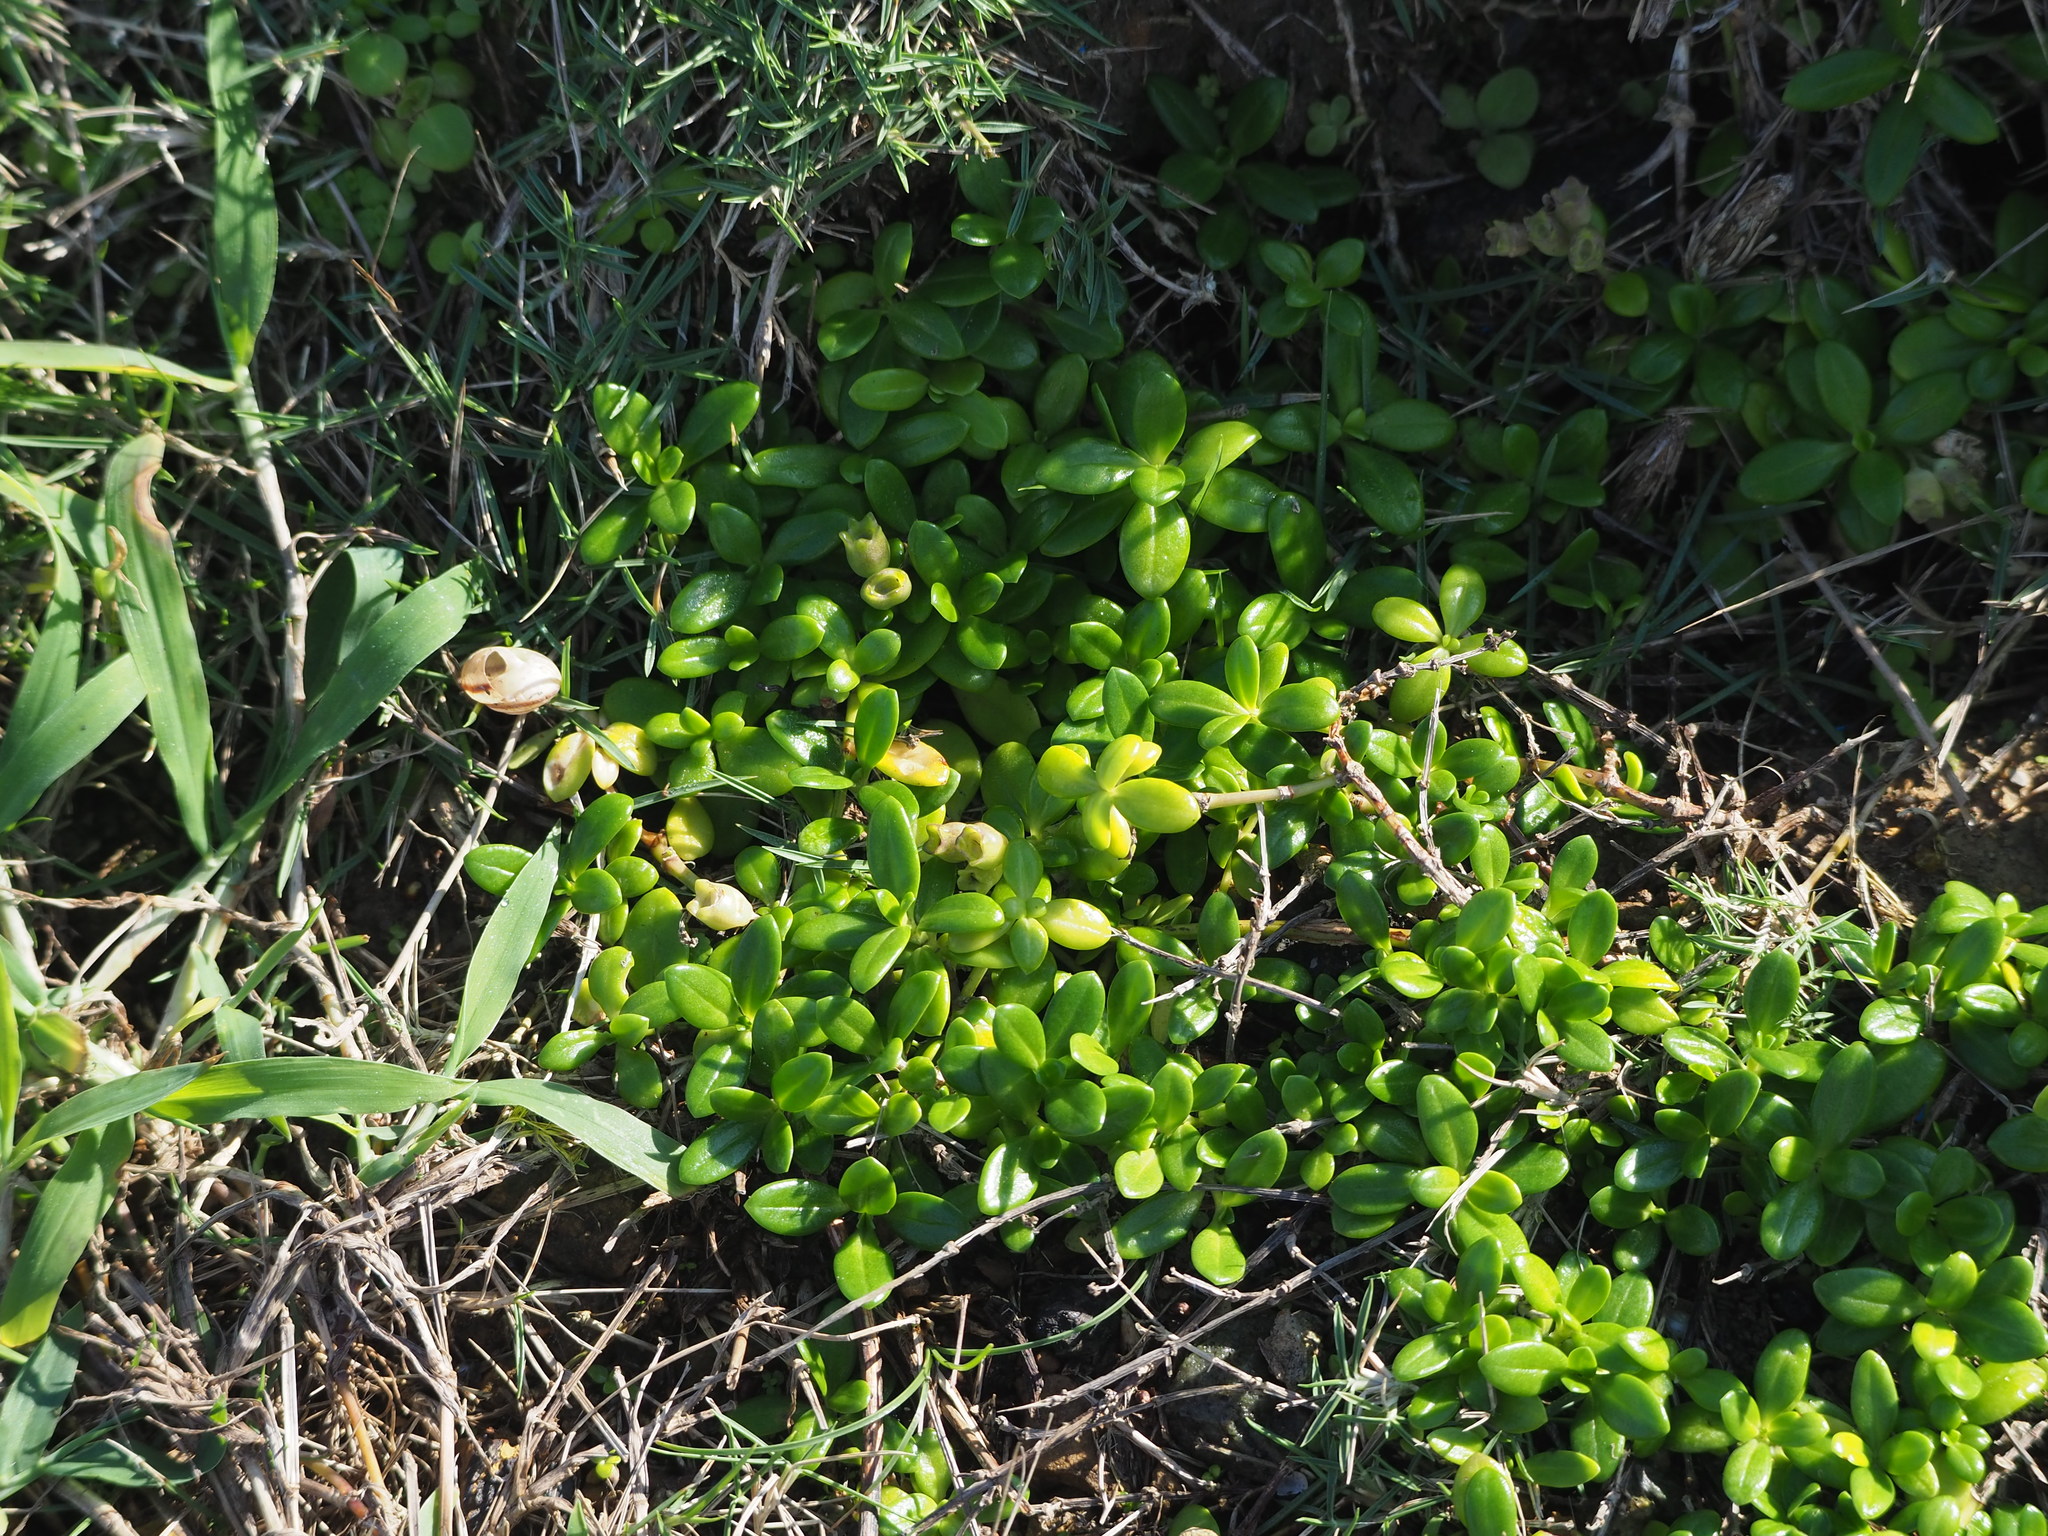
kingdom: Plantae
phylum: Tracheophyta
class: Magnoliopsida
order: Gentianales
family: Rubiaceae
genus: Leptopetalum
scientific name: Leptopetalum strigulosum
